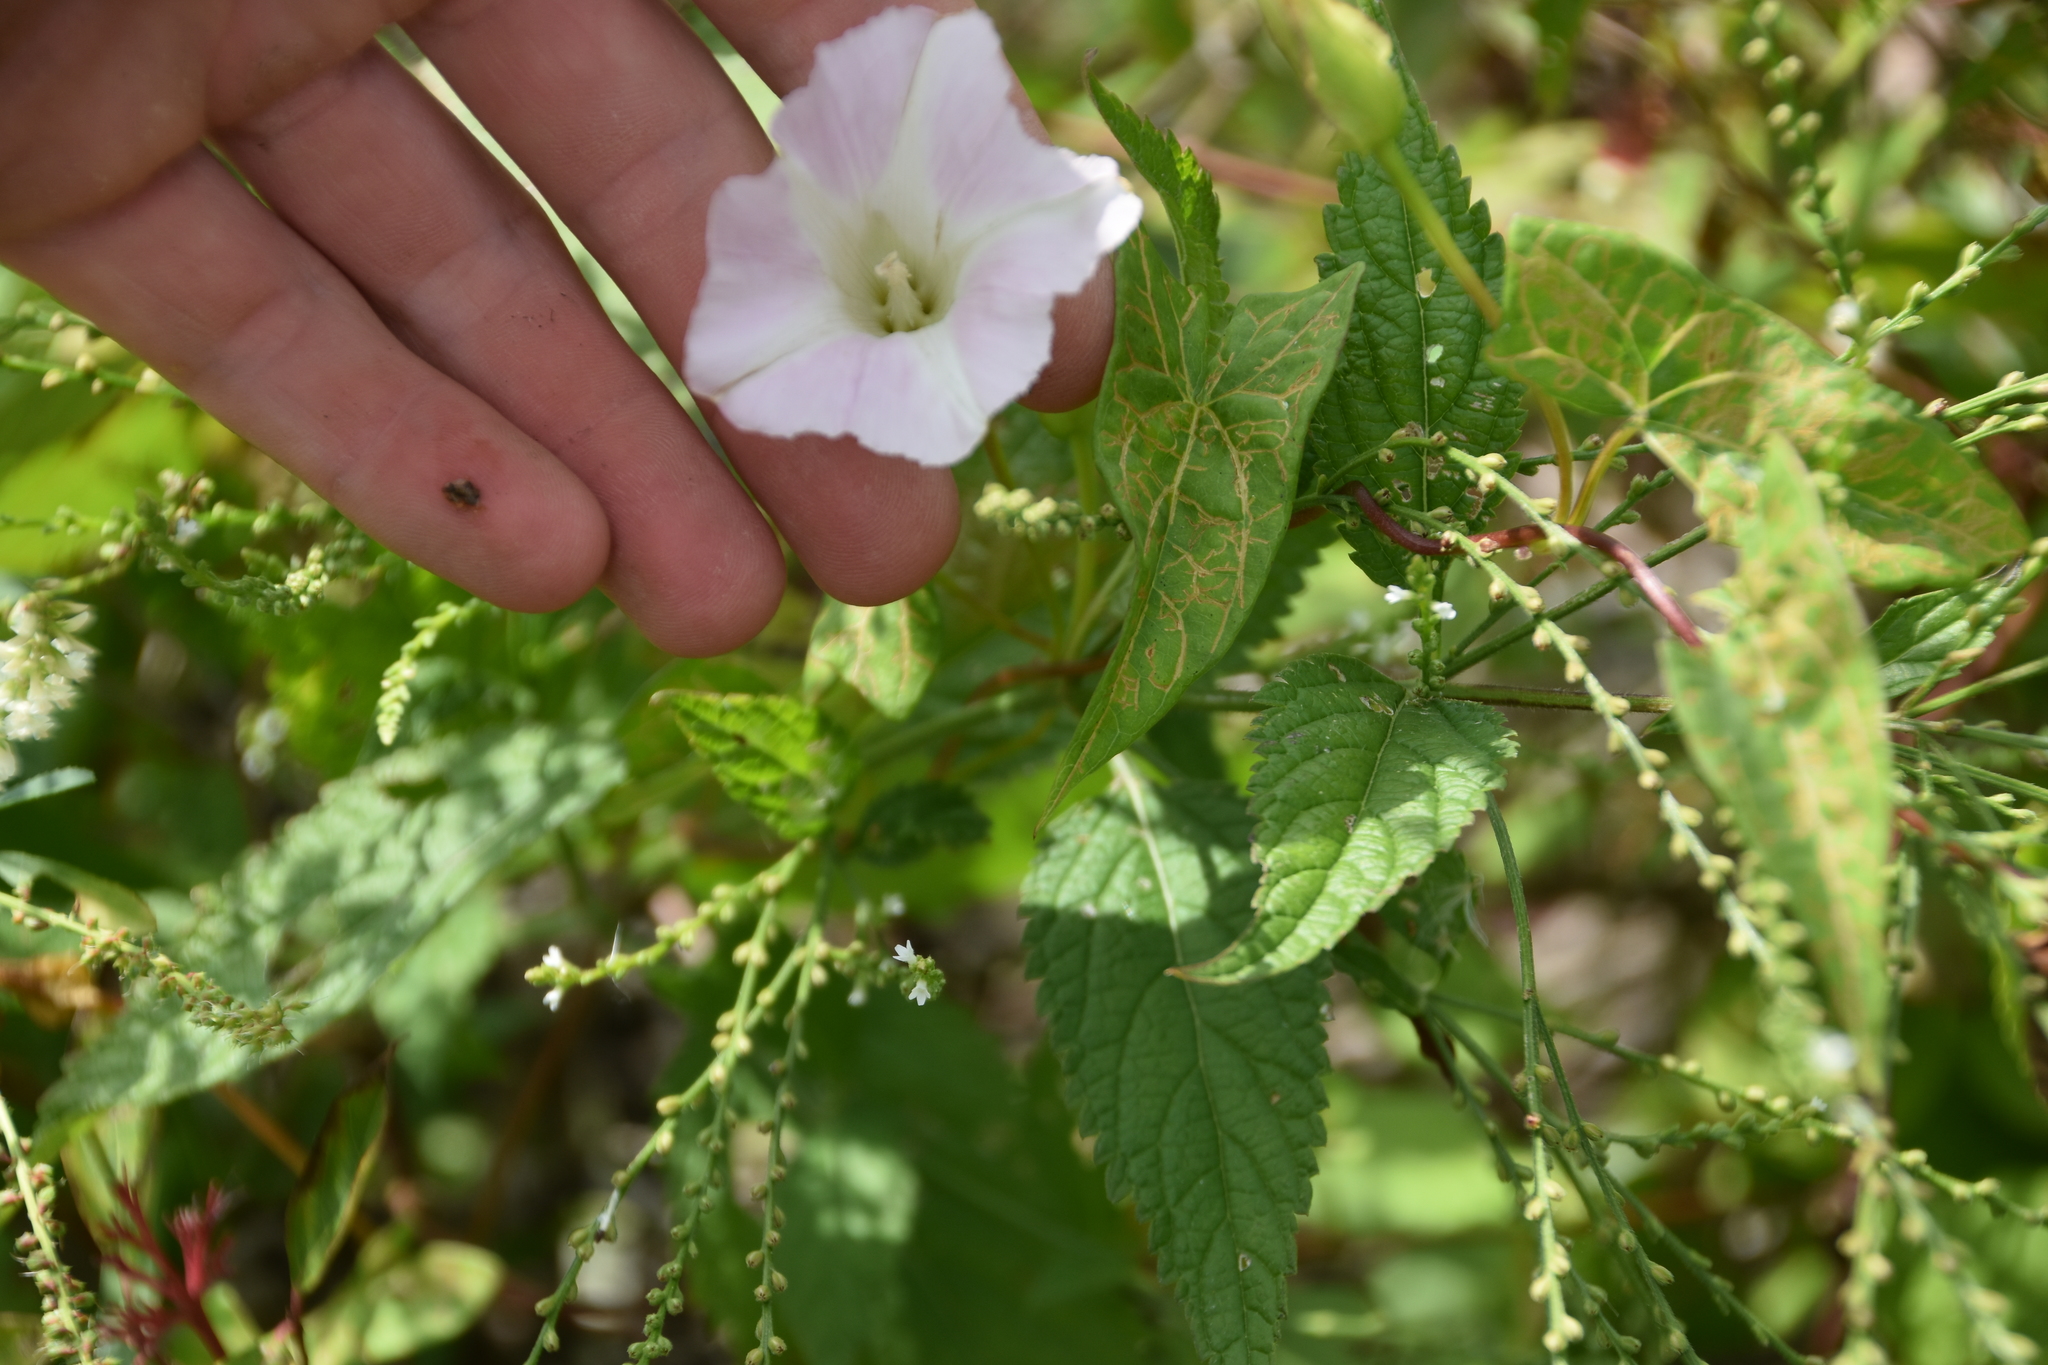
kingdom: Plantae
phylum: Tracheophyta
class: Magnoliopsida
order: Solanales
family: Convolvulaceae
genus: Calystegia
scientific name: Calystegia sepium
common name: Hedge bindweed
